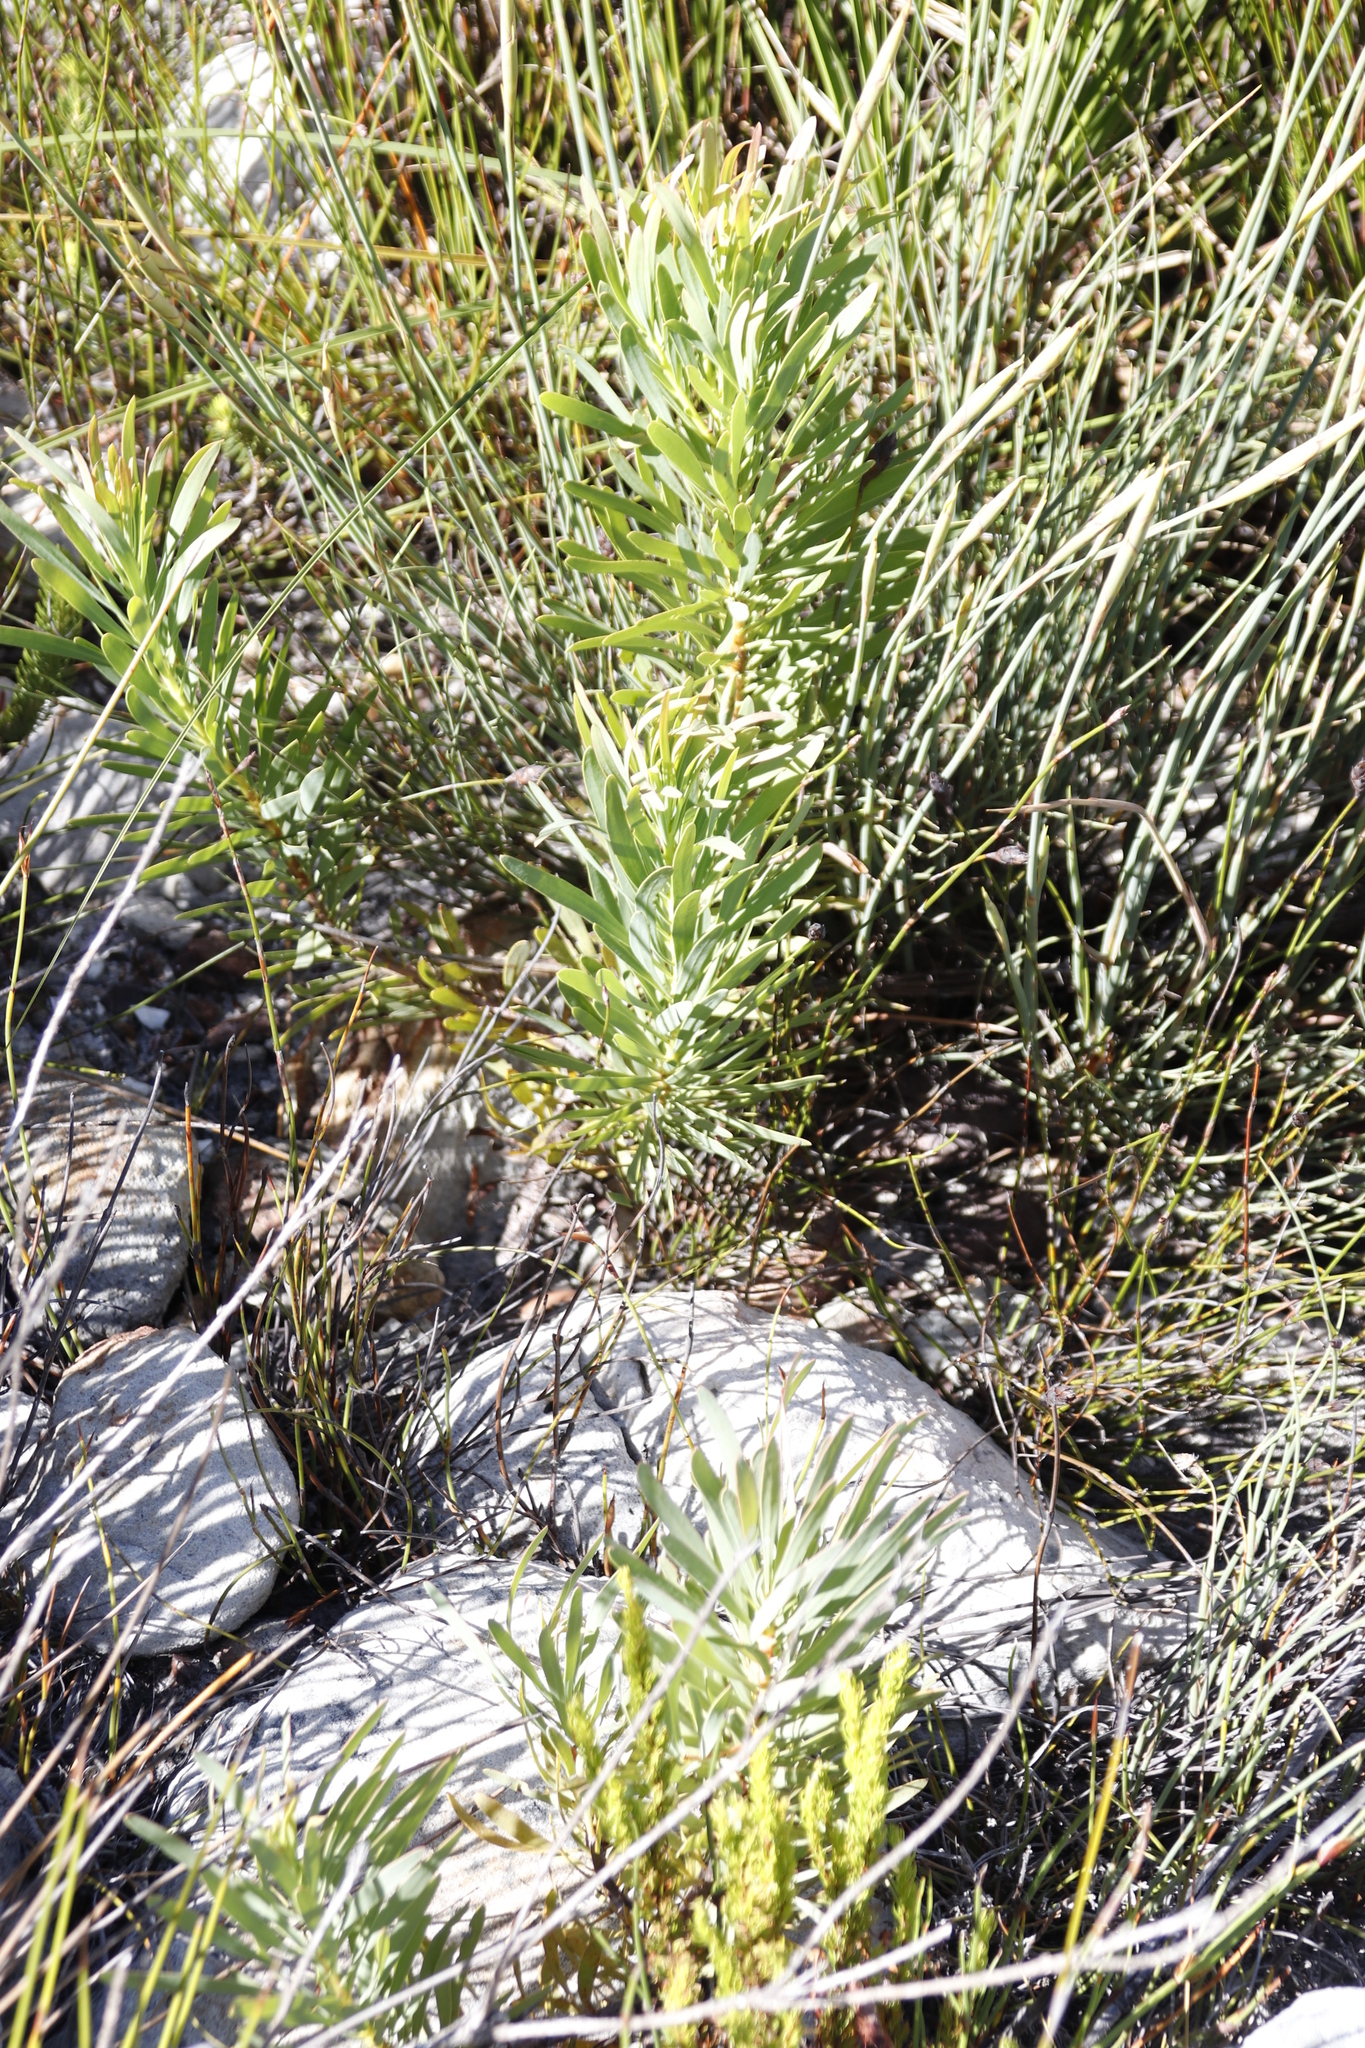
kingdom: Plantae
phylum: Tracheophyta
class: Magnoliopsida
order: Proteales
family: Proteaceae
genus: Protea
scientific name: Protea repens
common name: Sugarbush
